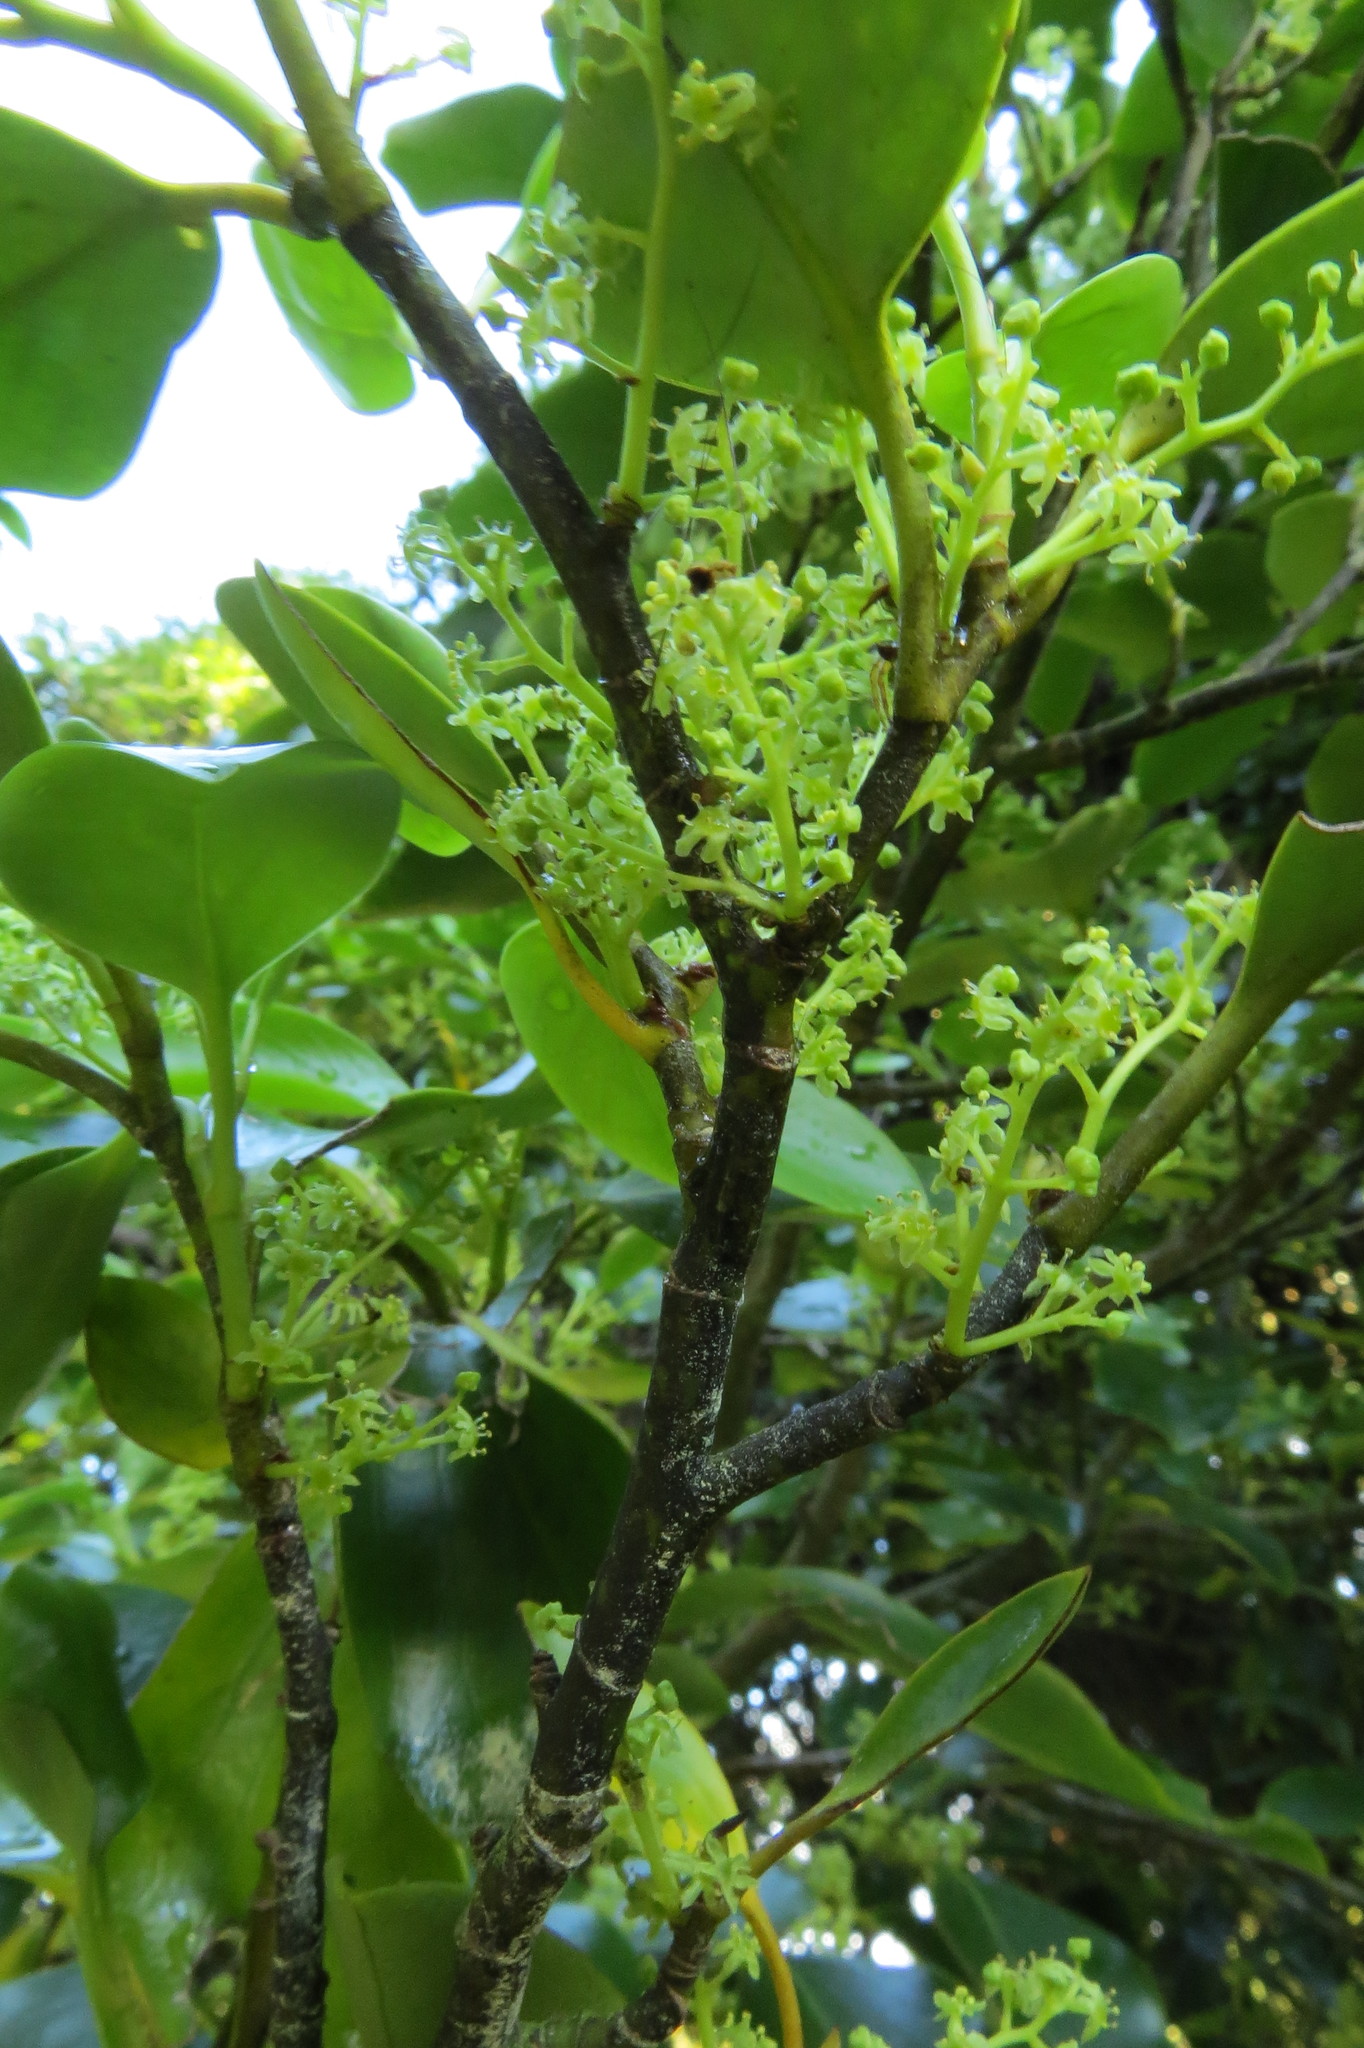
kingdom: Plantae
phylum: Tracheophyta
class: Magnoliopsida
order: Apiales
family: Griseliniaceae
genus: Griselinia
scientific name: Griselinia littoralis
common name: New zealand broadleaf
